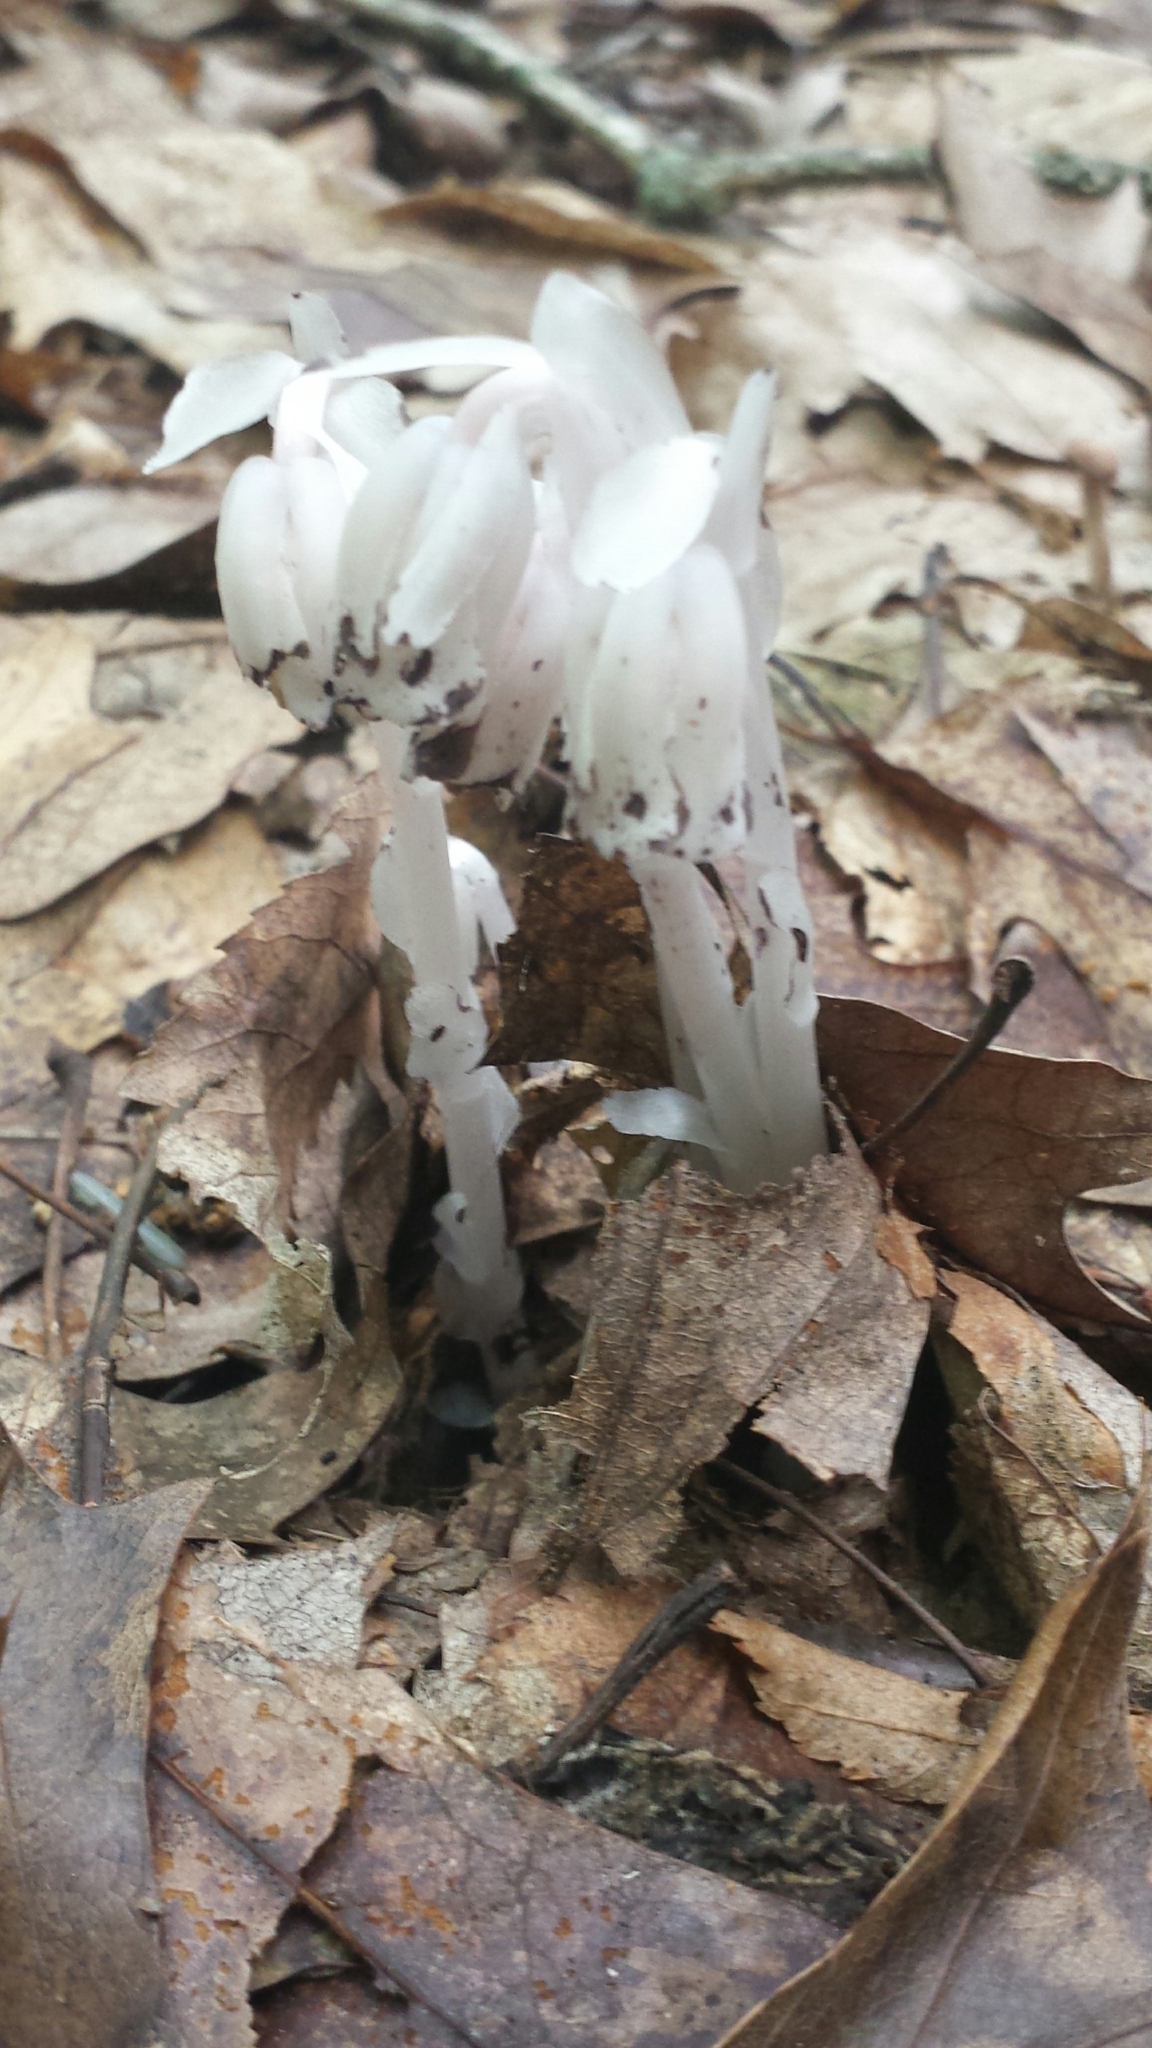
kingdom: Plantae
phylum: Tracheophyta
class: Magnoliopsida
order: Ericales
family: Ericaceae
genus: Monotropa
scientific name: Monotropa uniflora
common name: Convulsion root
